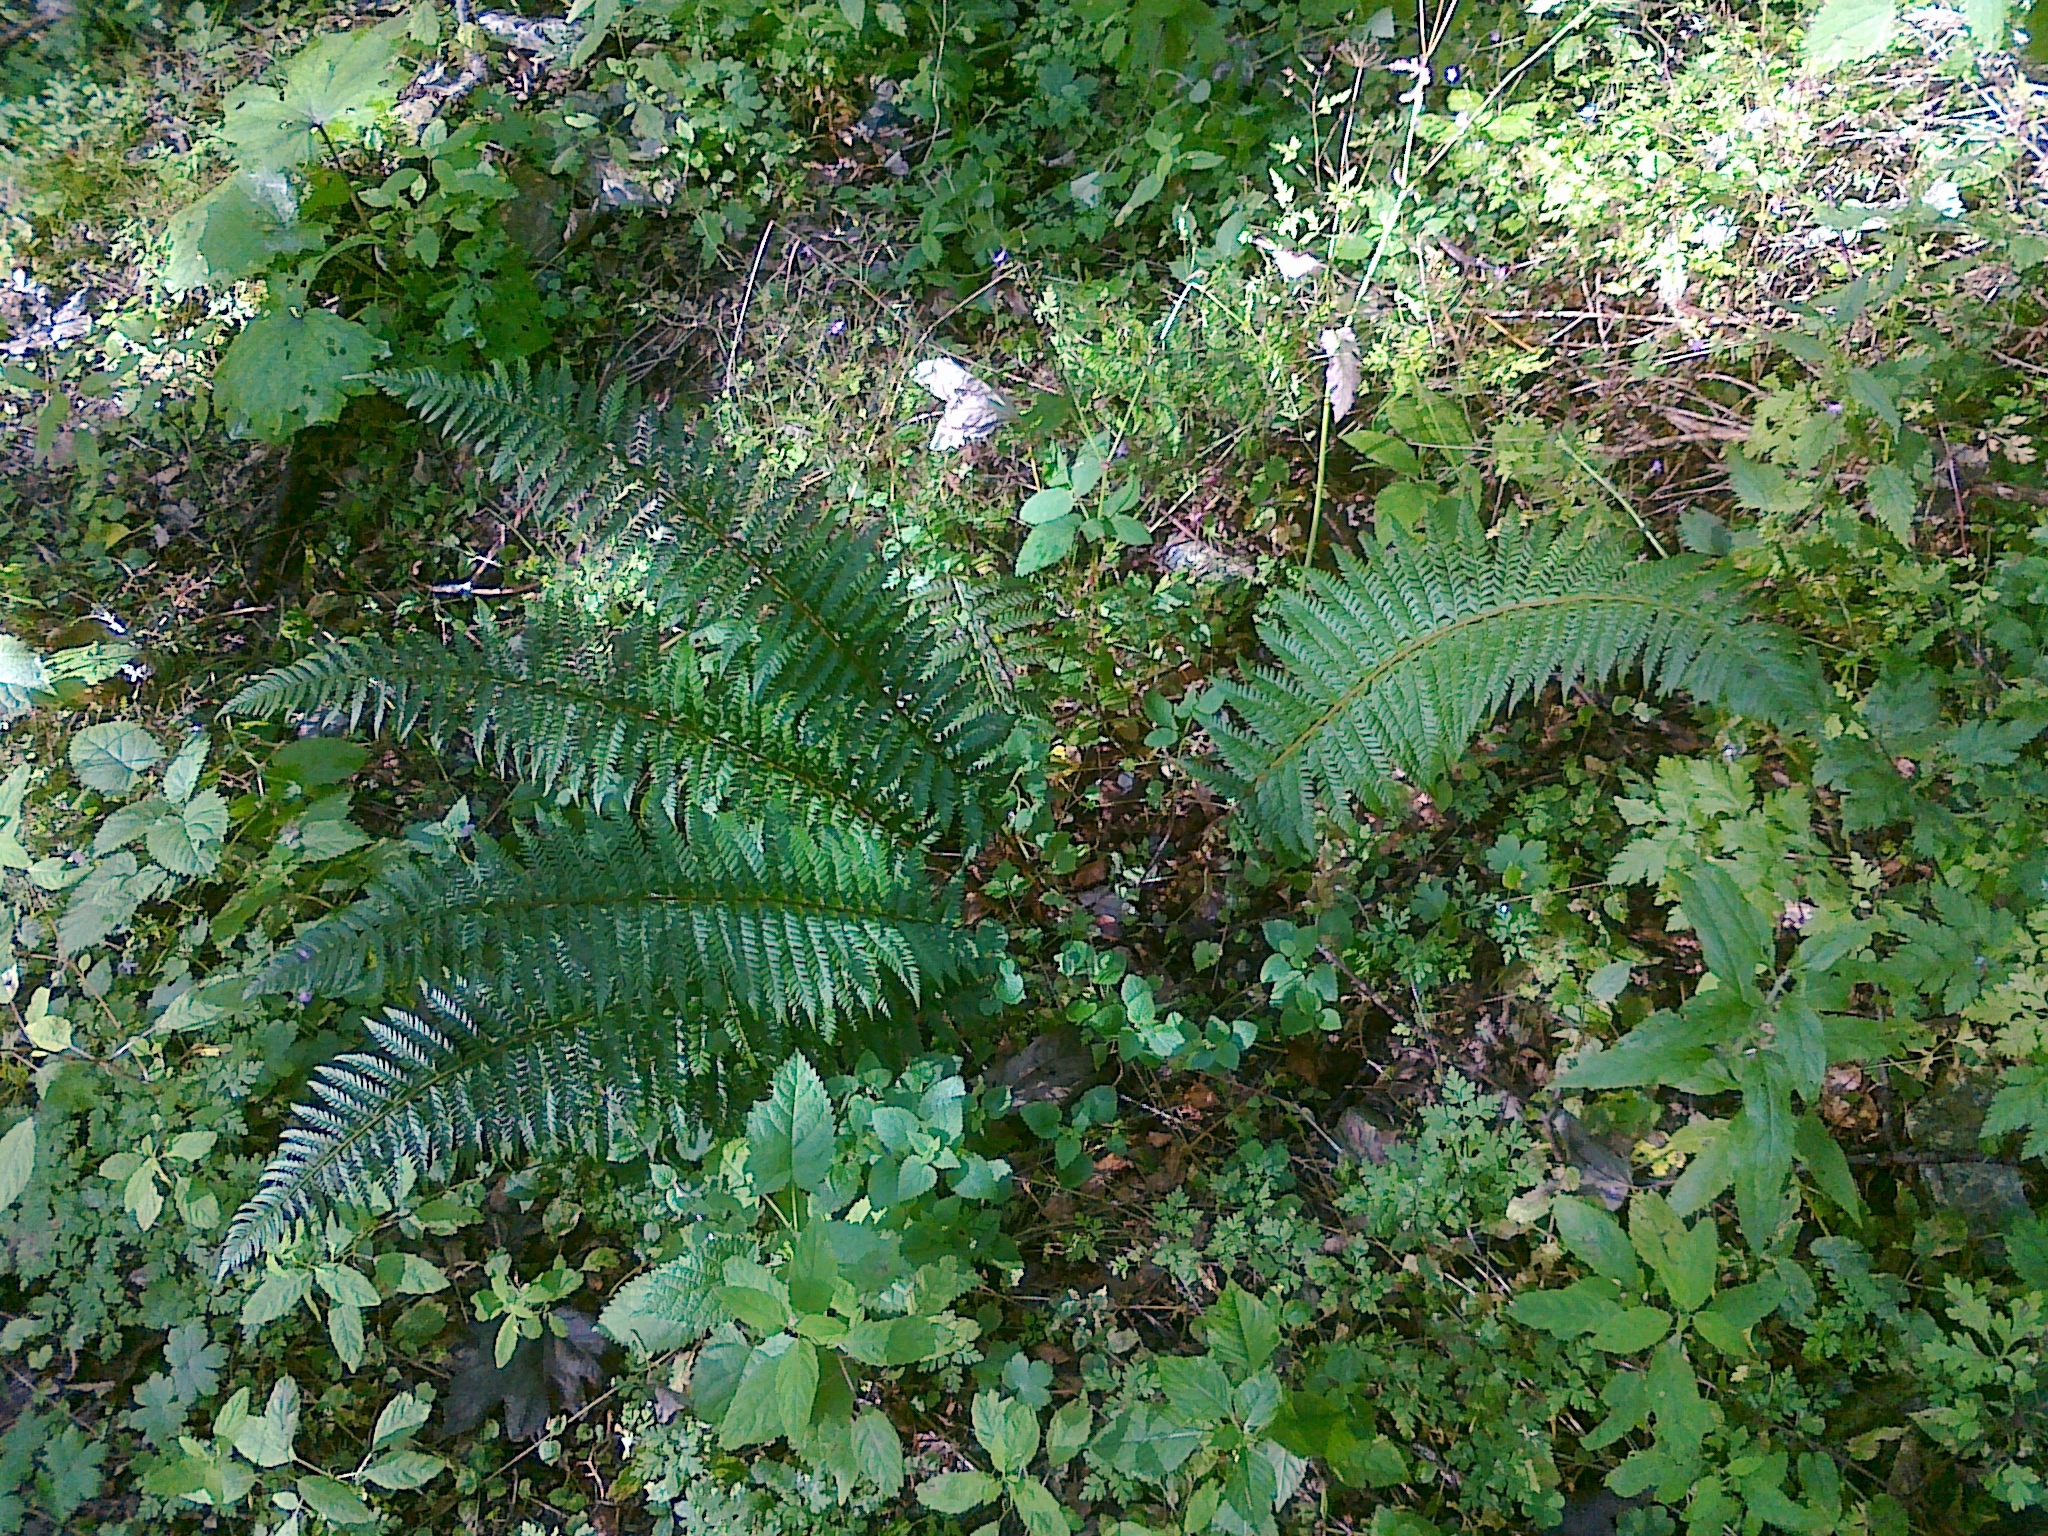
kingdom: Plantae
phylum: Tracheophyta
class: Polypodiopsida
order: Polypodiales
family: Dryopteridaceae
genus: Polystichum
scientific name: Polystichum aculeatum
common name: Hard shield-fern
